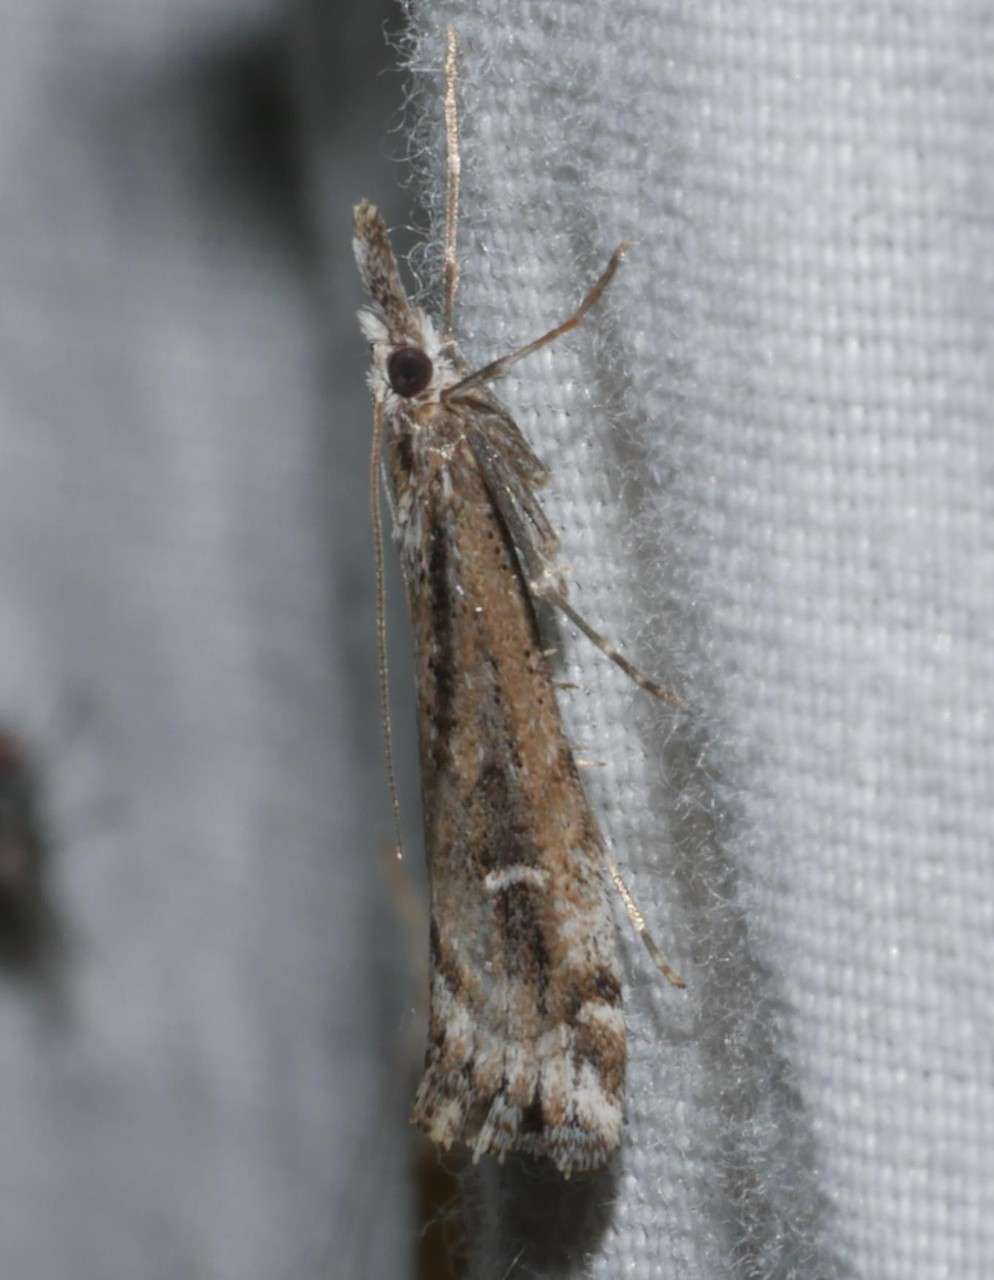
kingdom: Animalia
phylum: Arthropoda
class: Insecta
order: Lepidoptera
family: Crambidae
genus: Hednota
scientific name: Hednota crypsichroa
